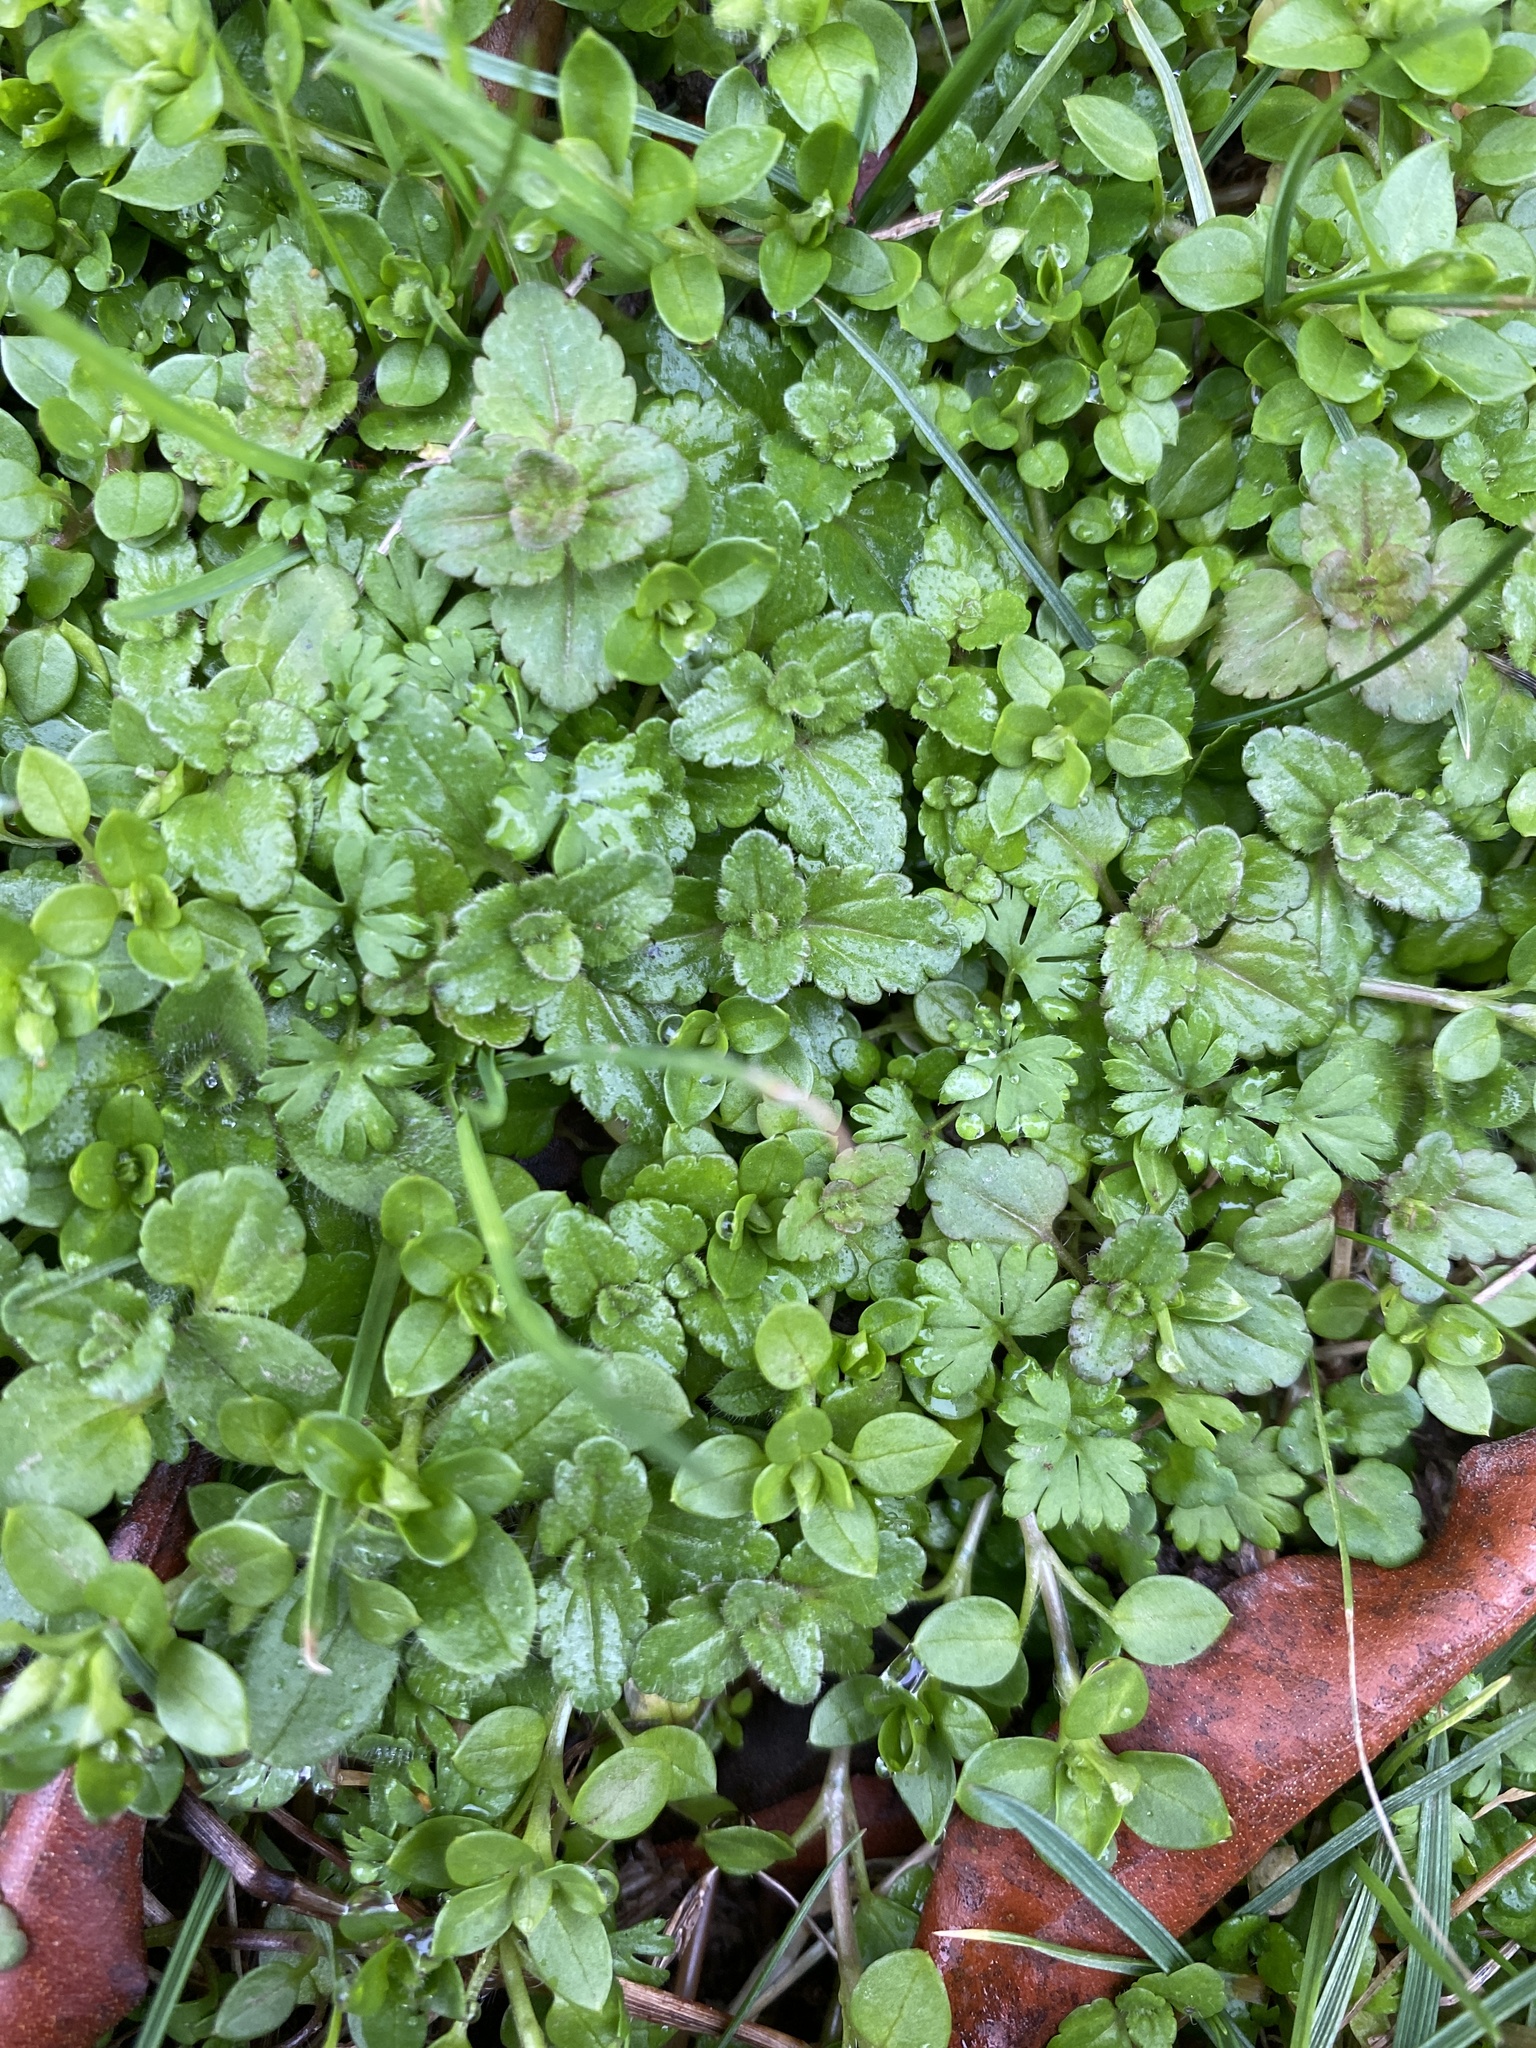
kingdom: Plantae
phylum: Tracheophyta
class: Magnoliopsida
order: Lamiales
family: Plantaginaceae
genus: Veronica
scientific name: Veronica persica
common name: Common field-speedwell
